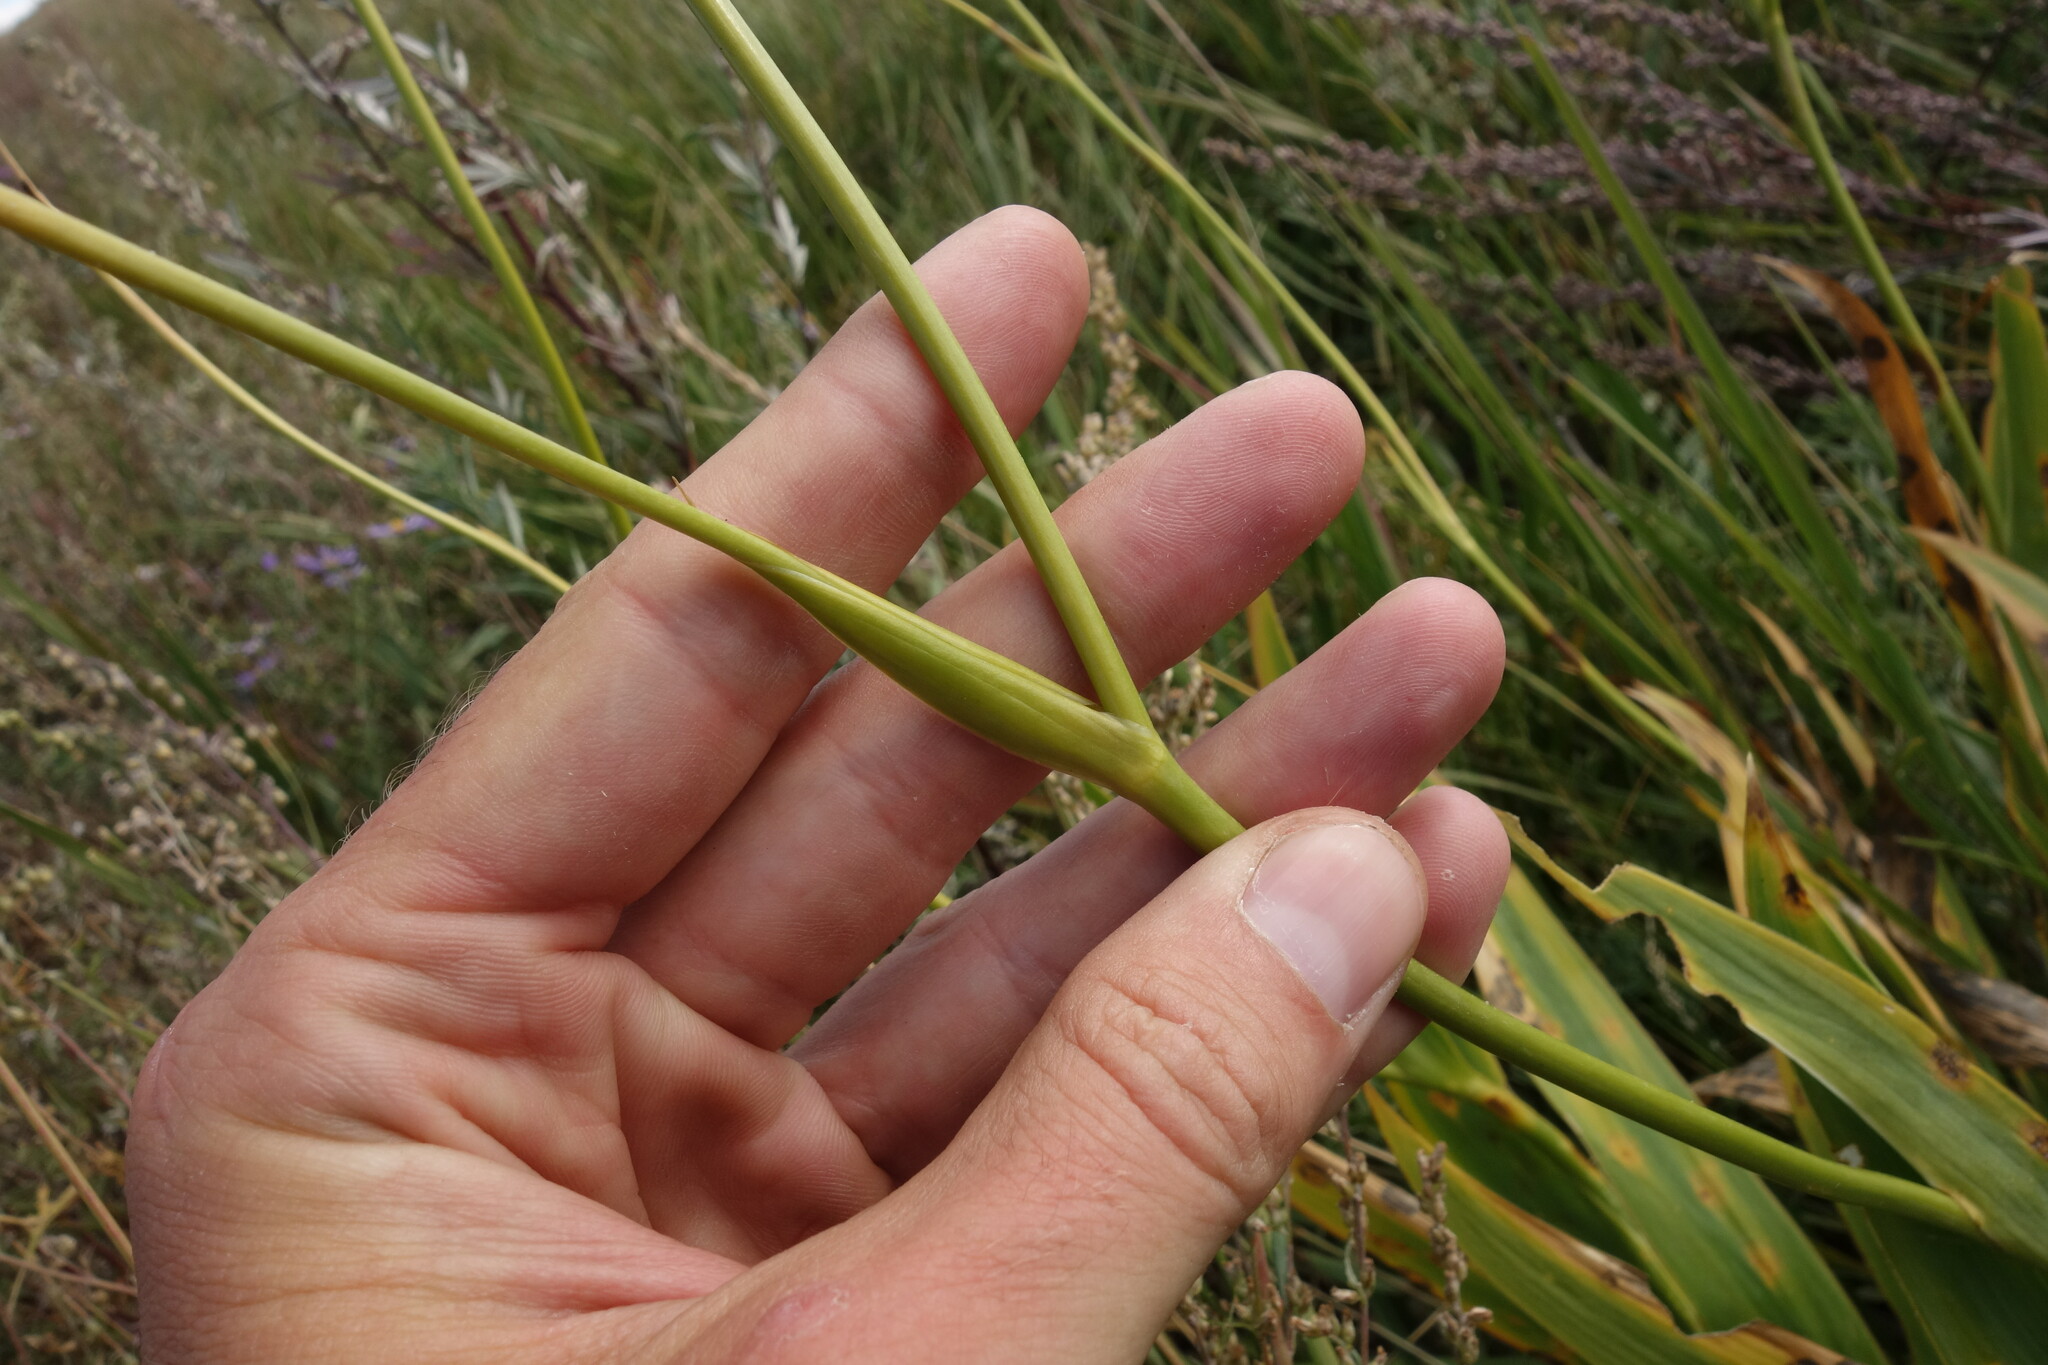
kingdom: Plantae
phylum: Tracheophyta
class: Liliopsida
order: Asparagales
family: Iridaceae
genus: Iris
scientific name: Iris dichotoma
